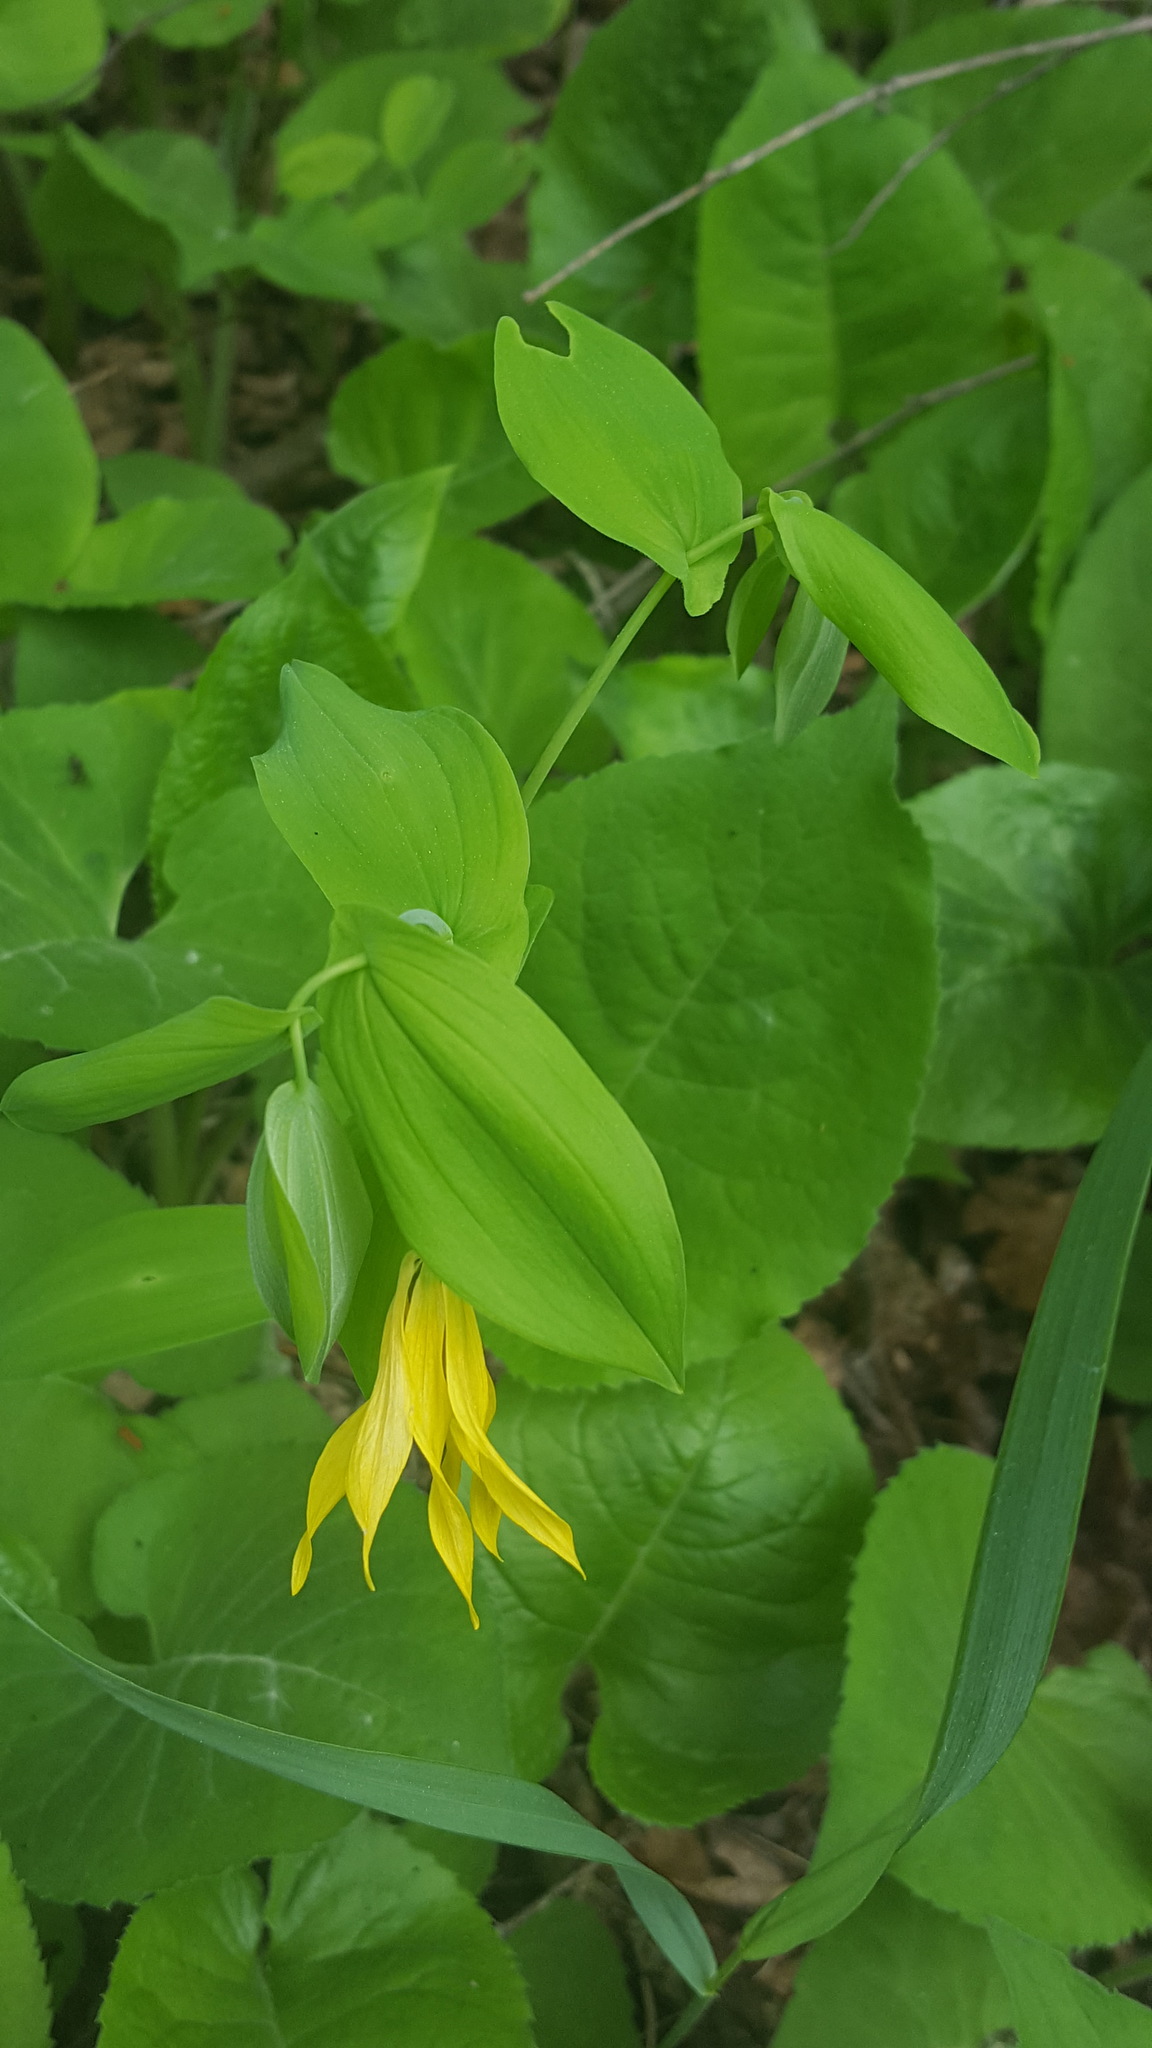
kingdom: Plantae
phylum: Tracheophyta
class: Liliopsida
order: Liliales
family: Colchicaceae
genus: Uvularia
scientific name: Uvularia grandiflora
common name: Bellwort
